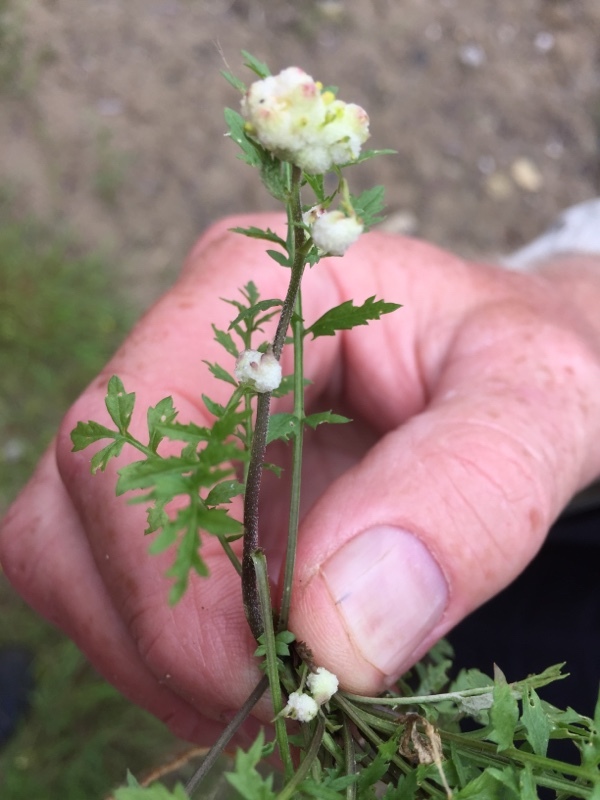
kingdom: Animalia
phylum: Arthropoda
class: Insecta
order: Diptera
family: Cecidomyiidae
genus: Dasineura
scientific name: Dasineura sisymbrii
